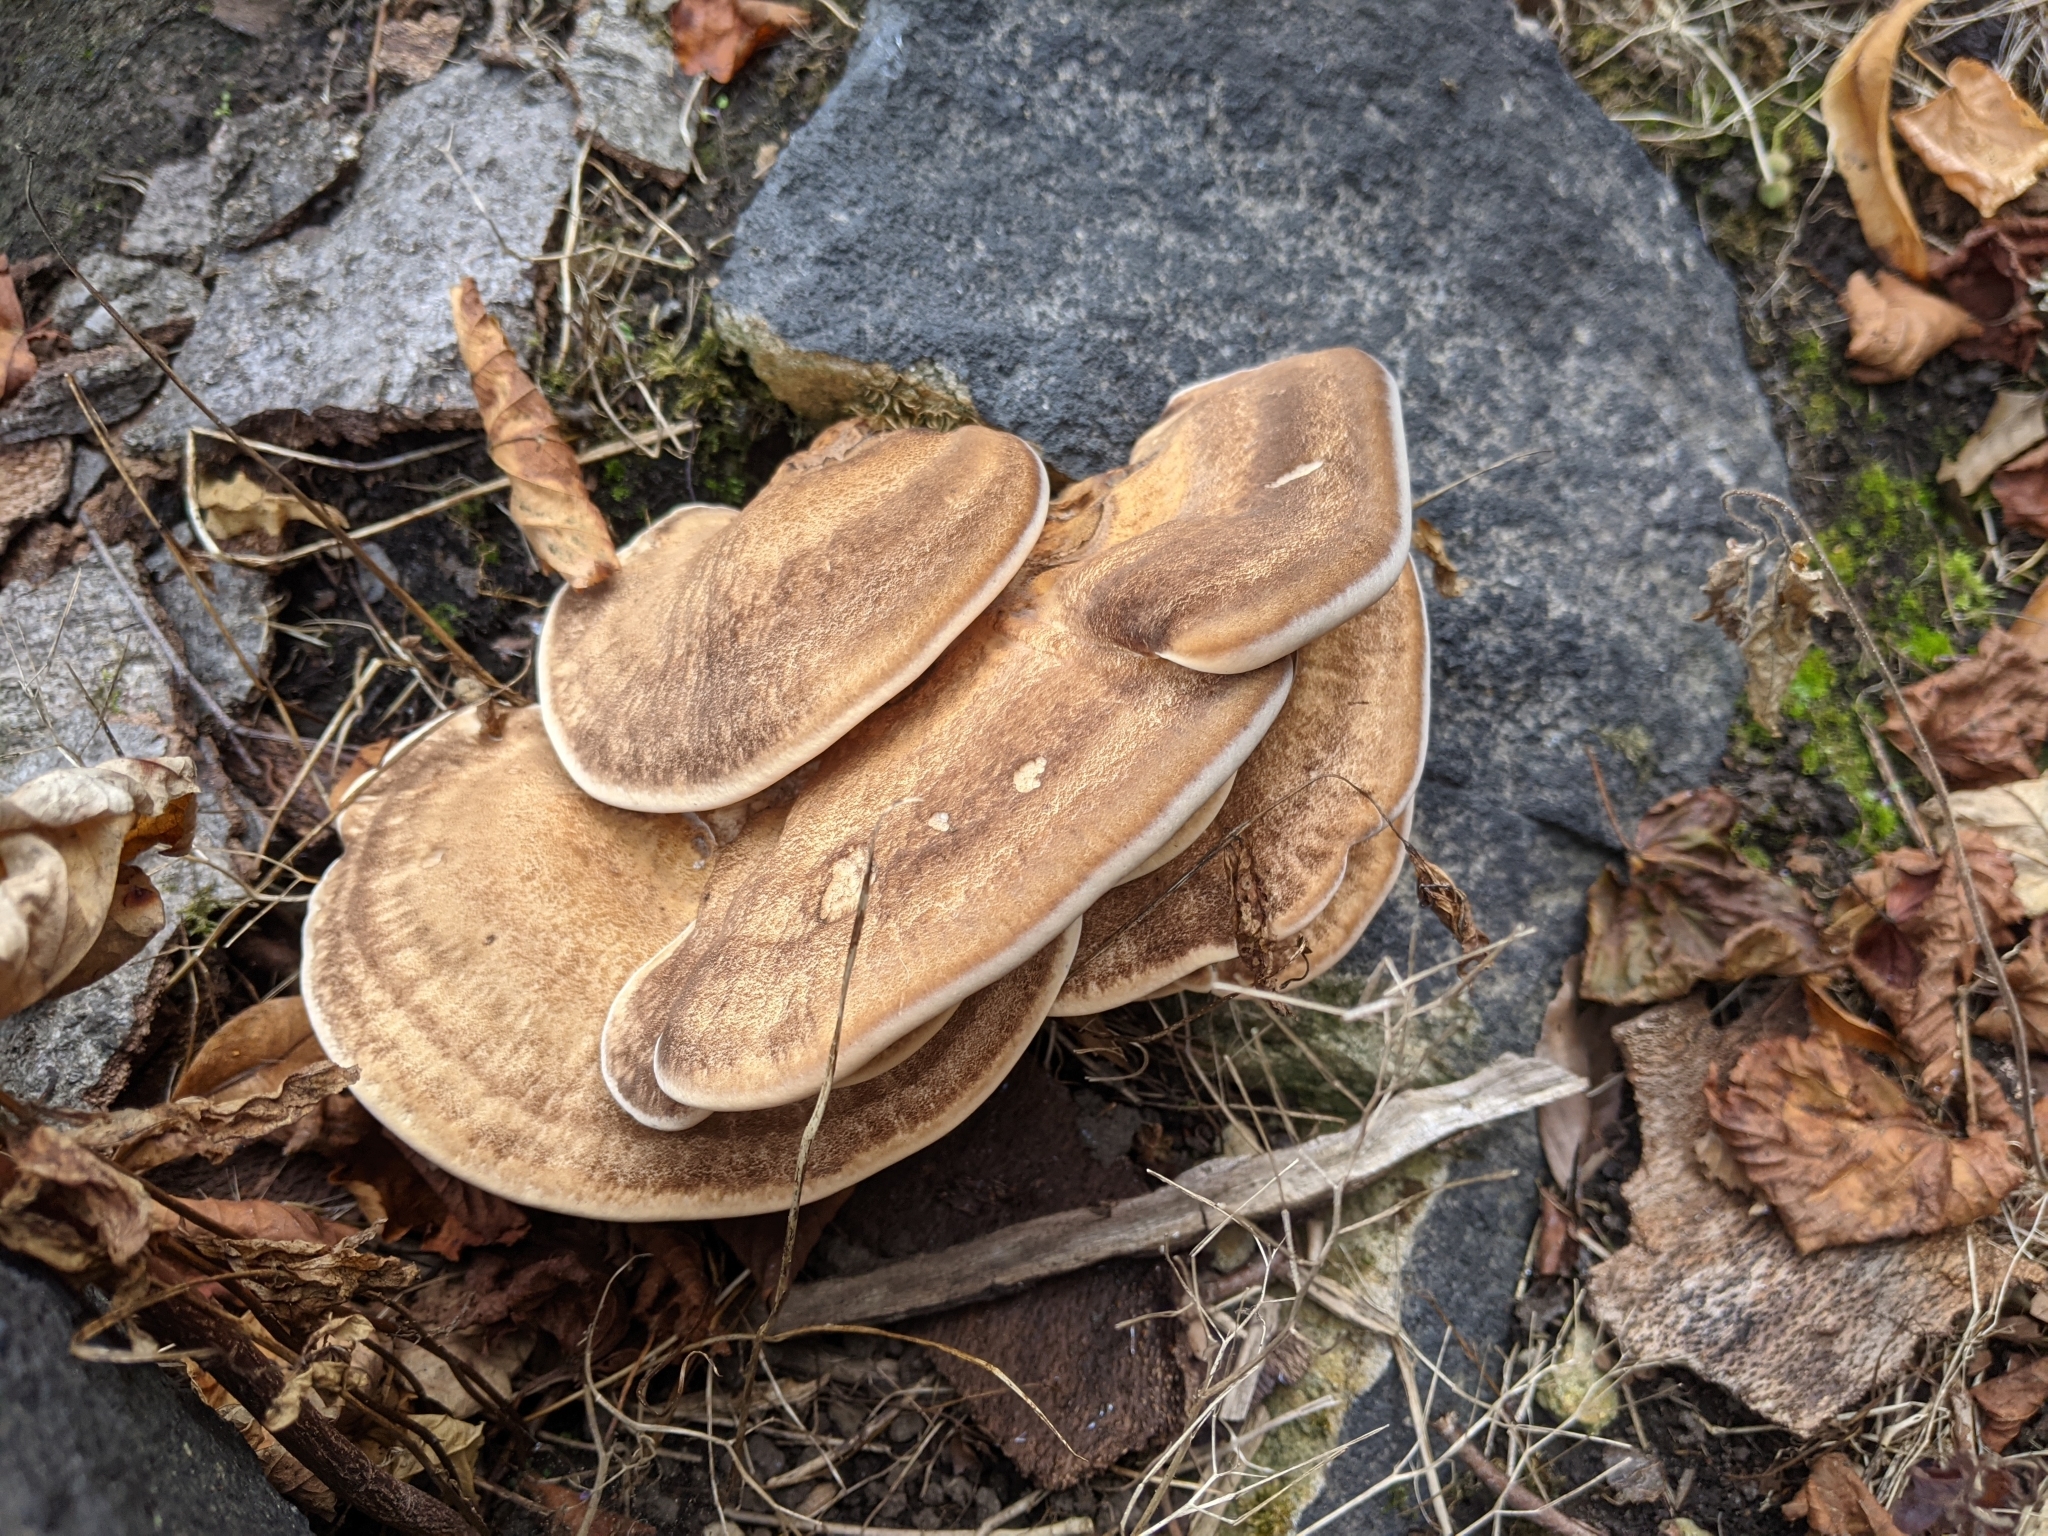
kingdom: Fungi
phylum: Basidiomycota
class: Agaricomycetes
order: Polyporales
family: Meripilaceae
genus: Meripilus
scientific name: Meripilus giganteus
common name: Giant polypore
